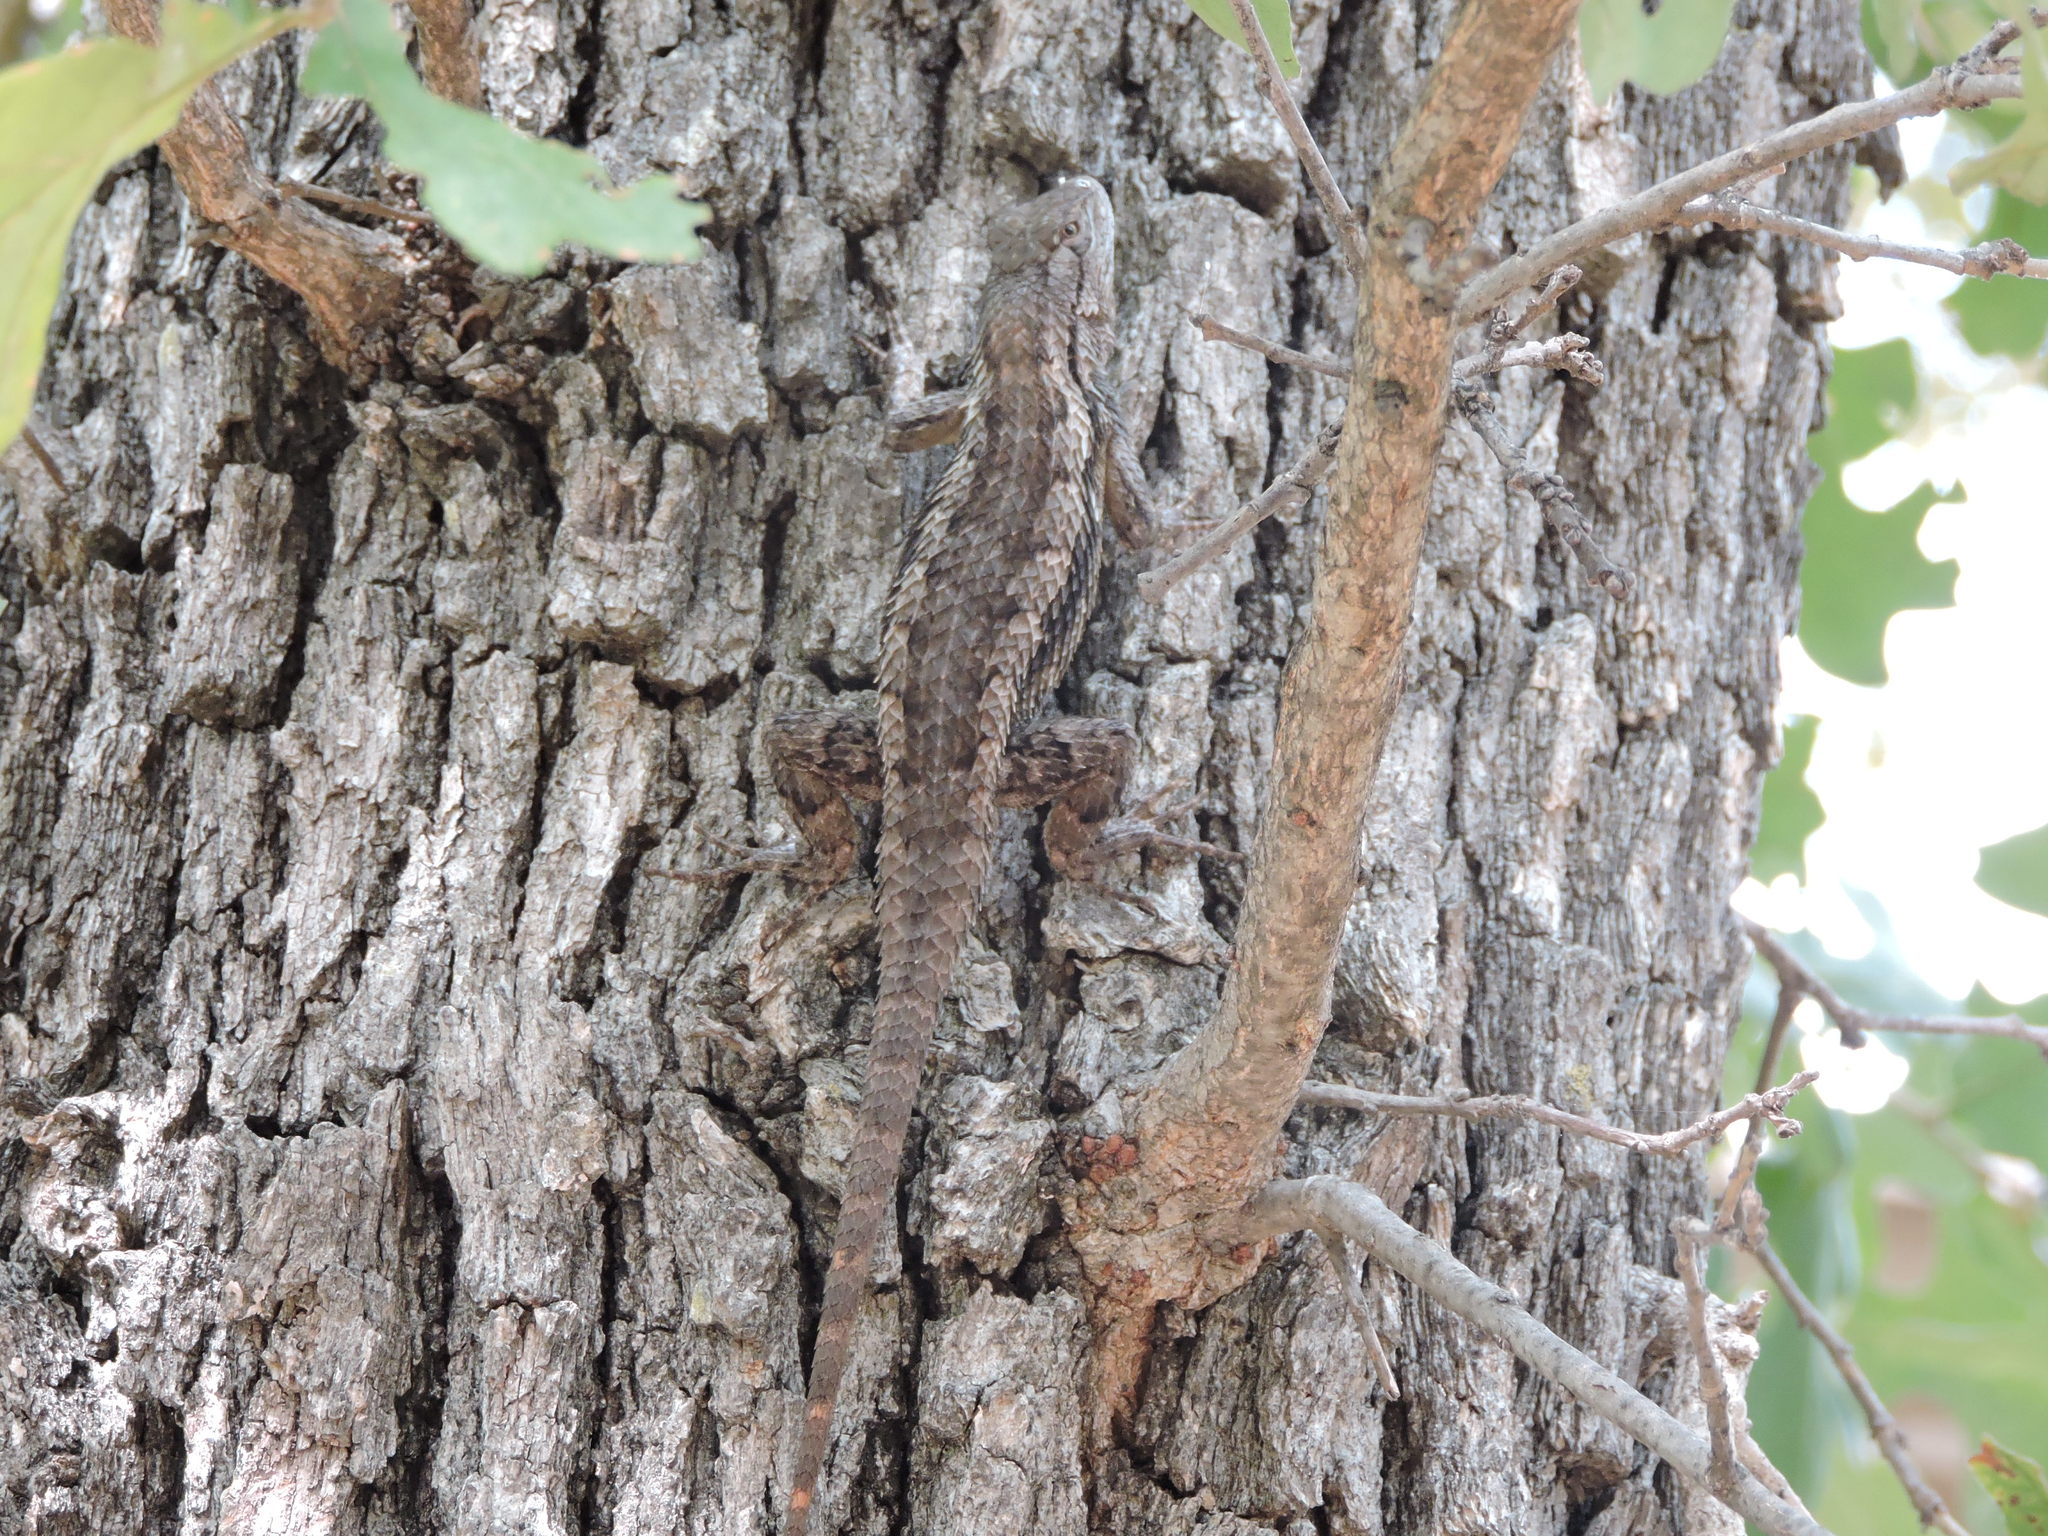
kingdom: Animalia
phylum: Chordata
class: Squamata
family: Phrynosomatidae
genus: Sceloporus
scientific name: Sceloporus olivaceus
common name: Texas spiny lizard
